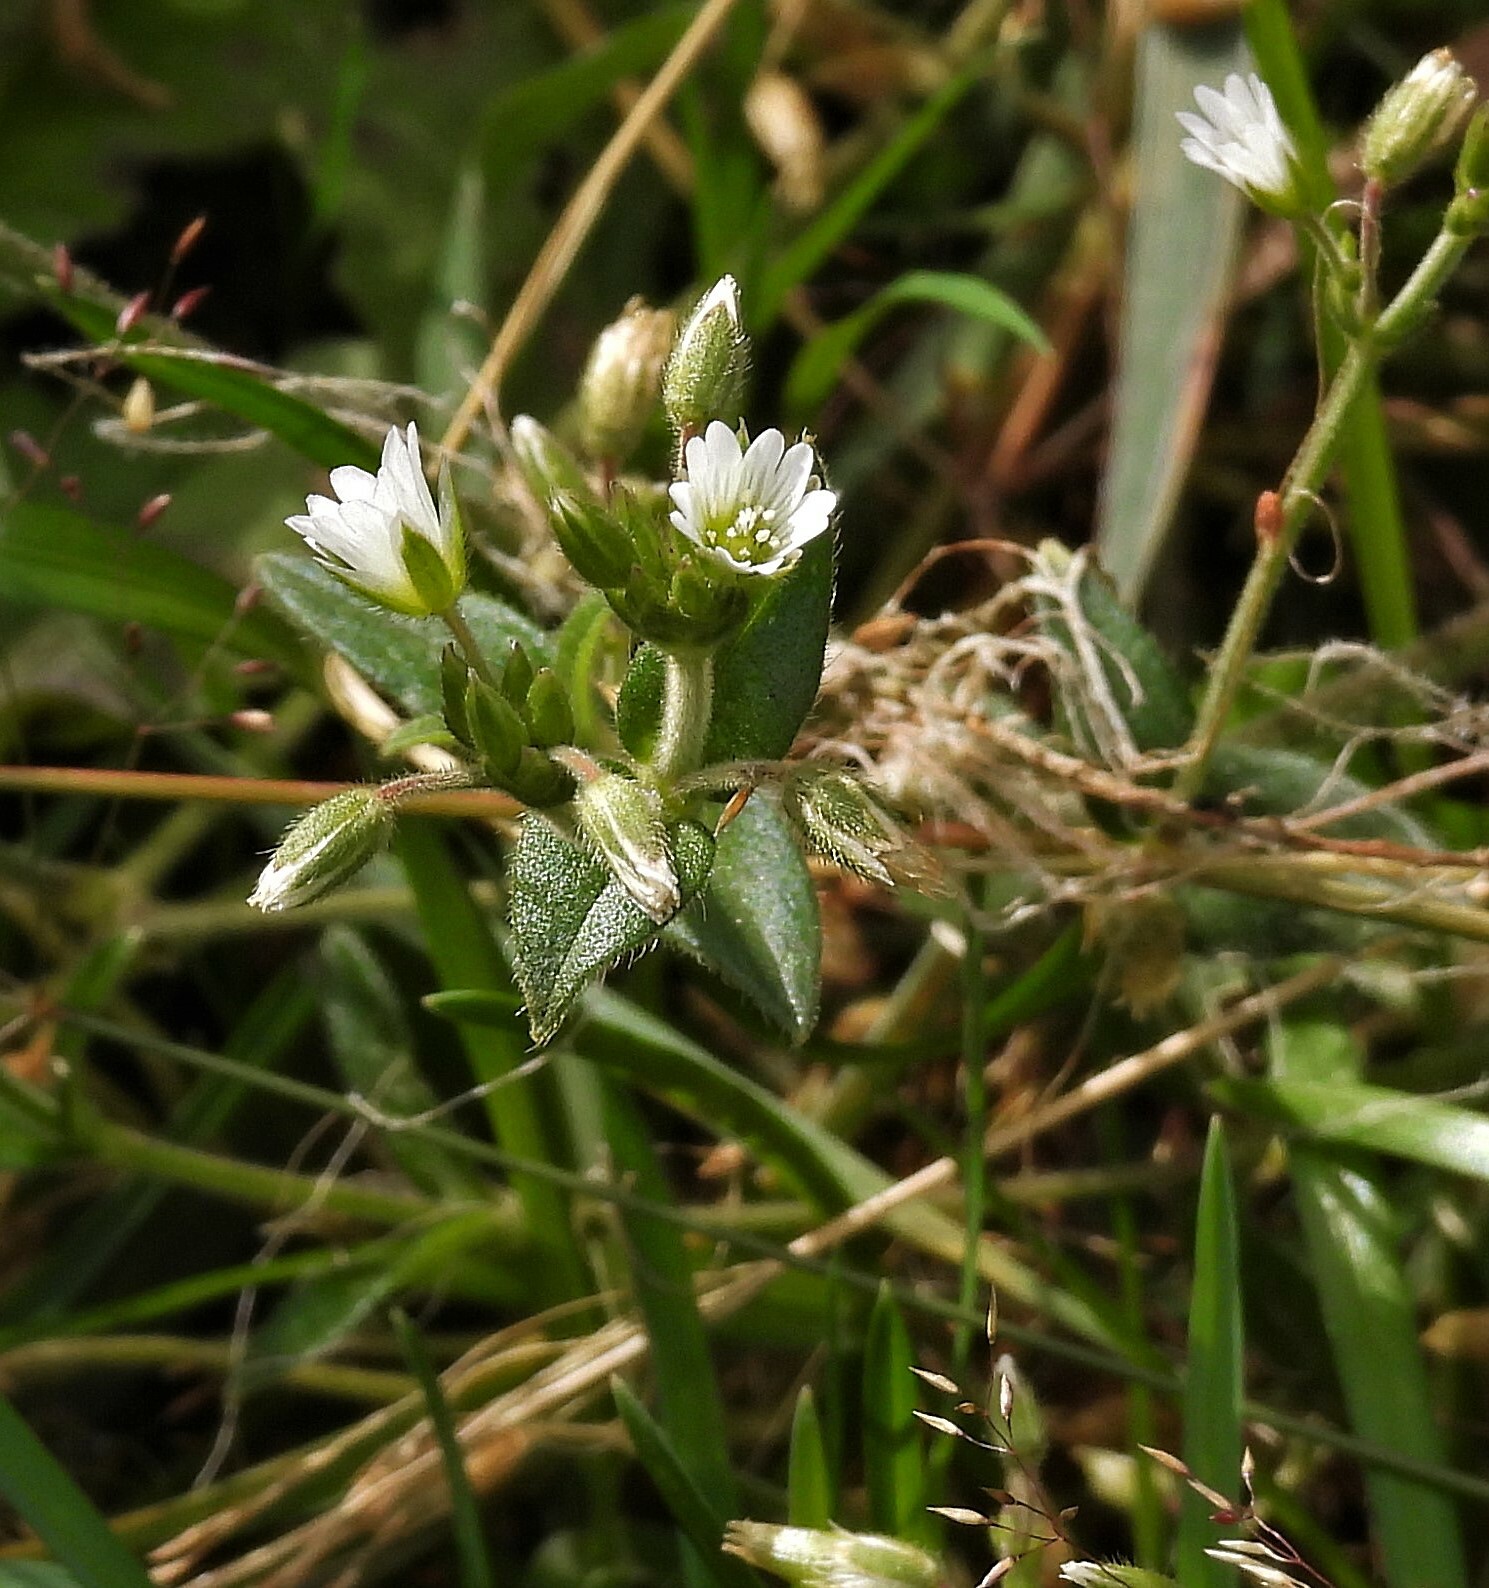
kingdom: Plantae
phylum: Tracheophyta
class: Magnoliopsida
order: Caryophyllales
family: Caryophyllaceae
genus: Cerastium
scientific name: Cerastium fontanum
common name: Common mouse-ear
